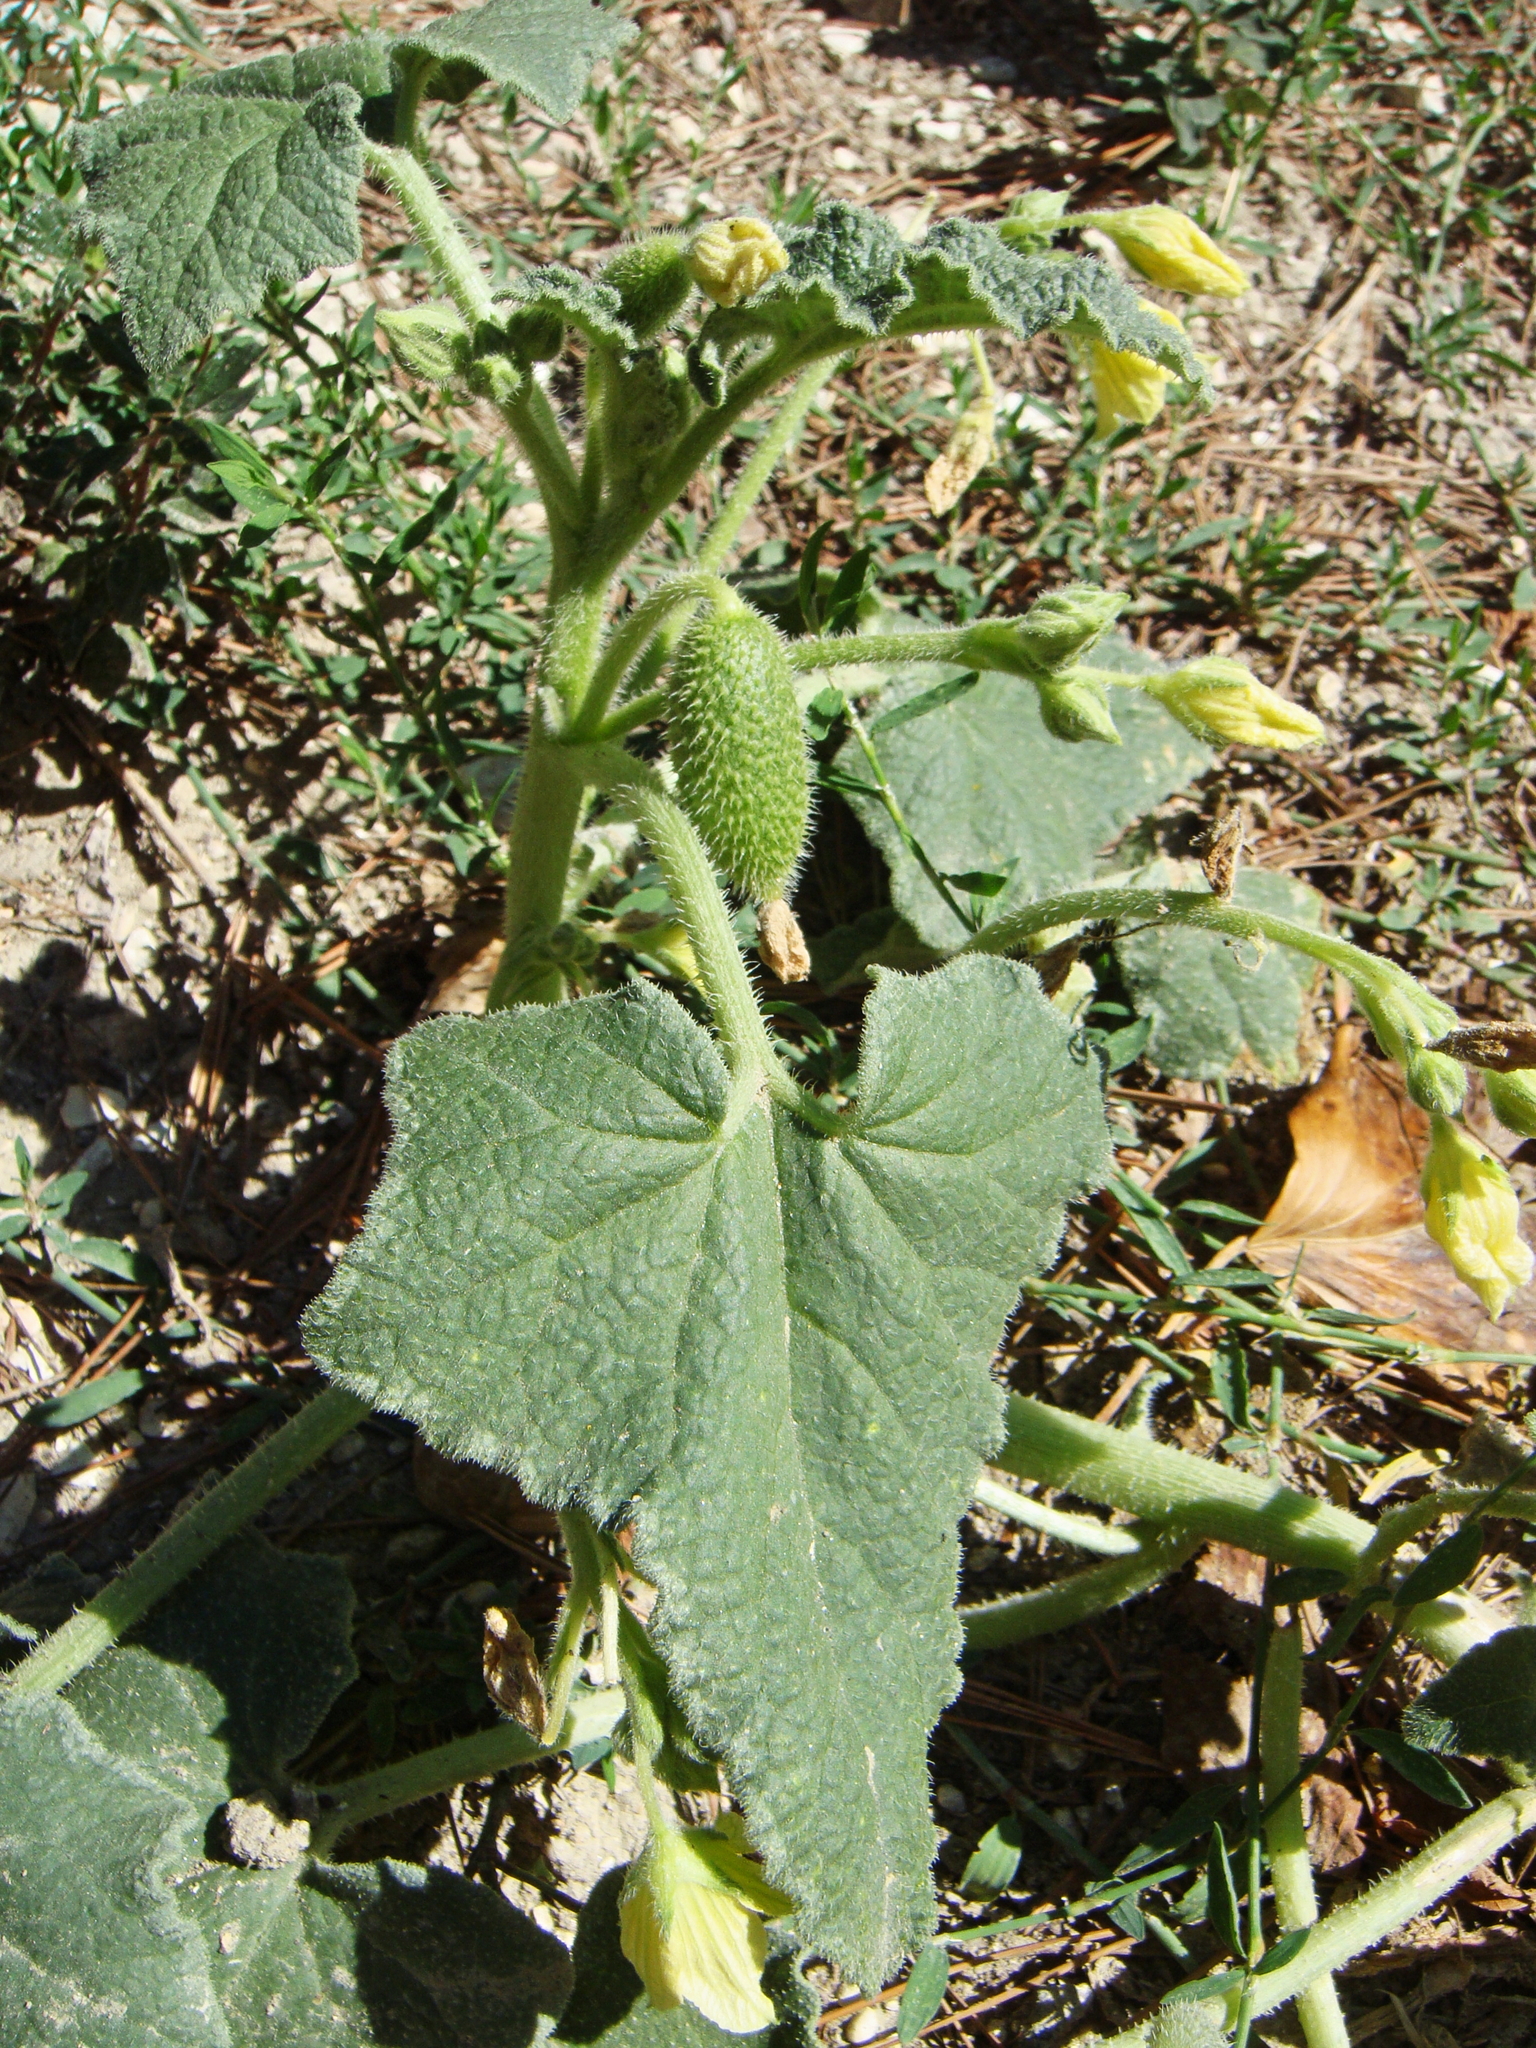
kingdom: Plantae
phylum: Tracheophyta
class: Magnoliopsida
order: Cucurbitales
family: Cucurbitaceae
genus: Ecballium
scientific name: Ecballium elaterium
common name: Squirting cucumber
